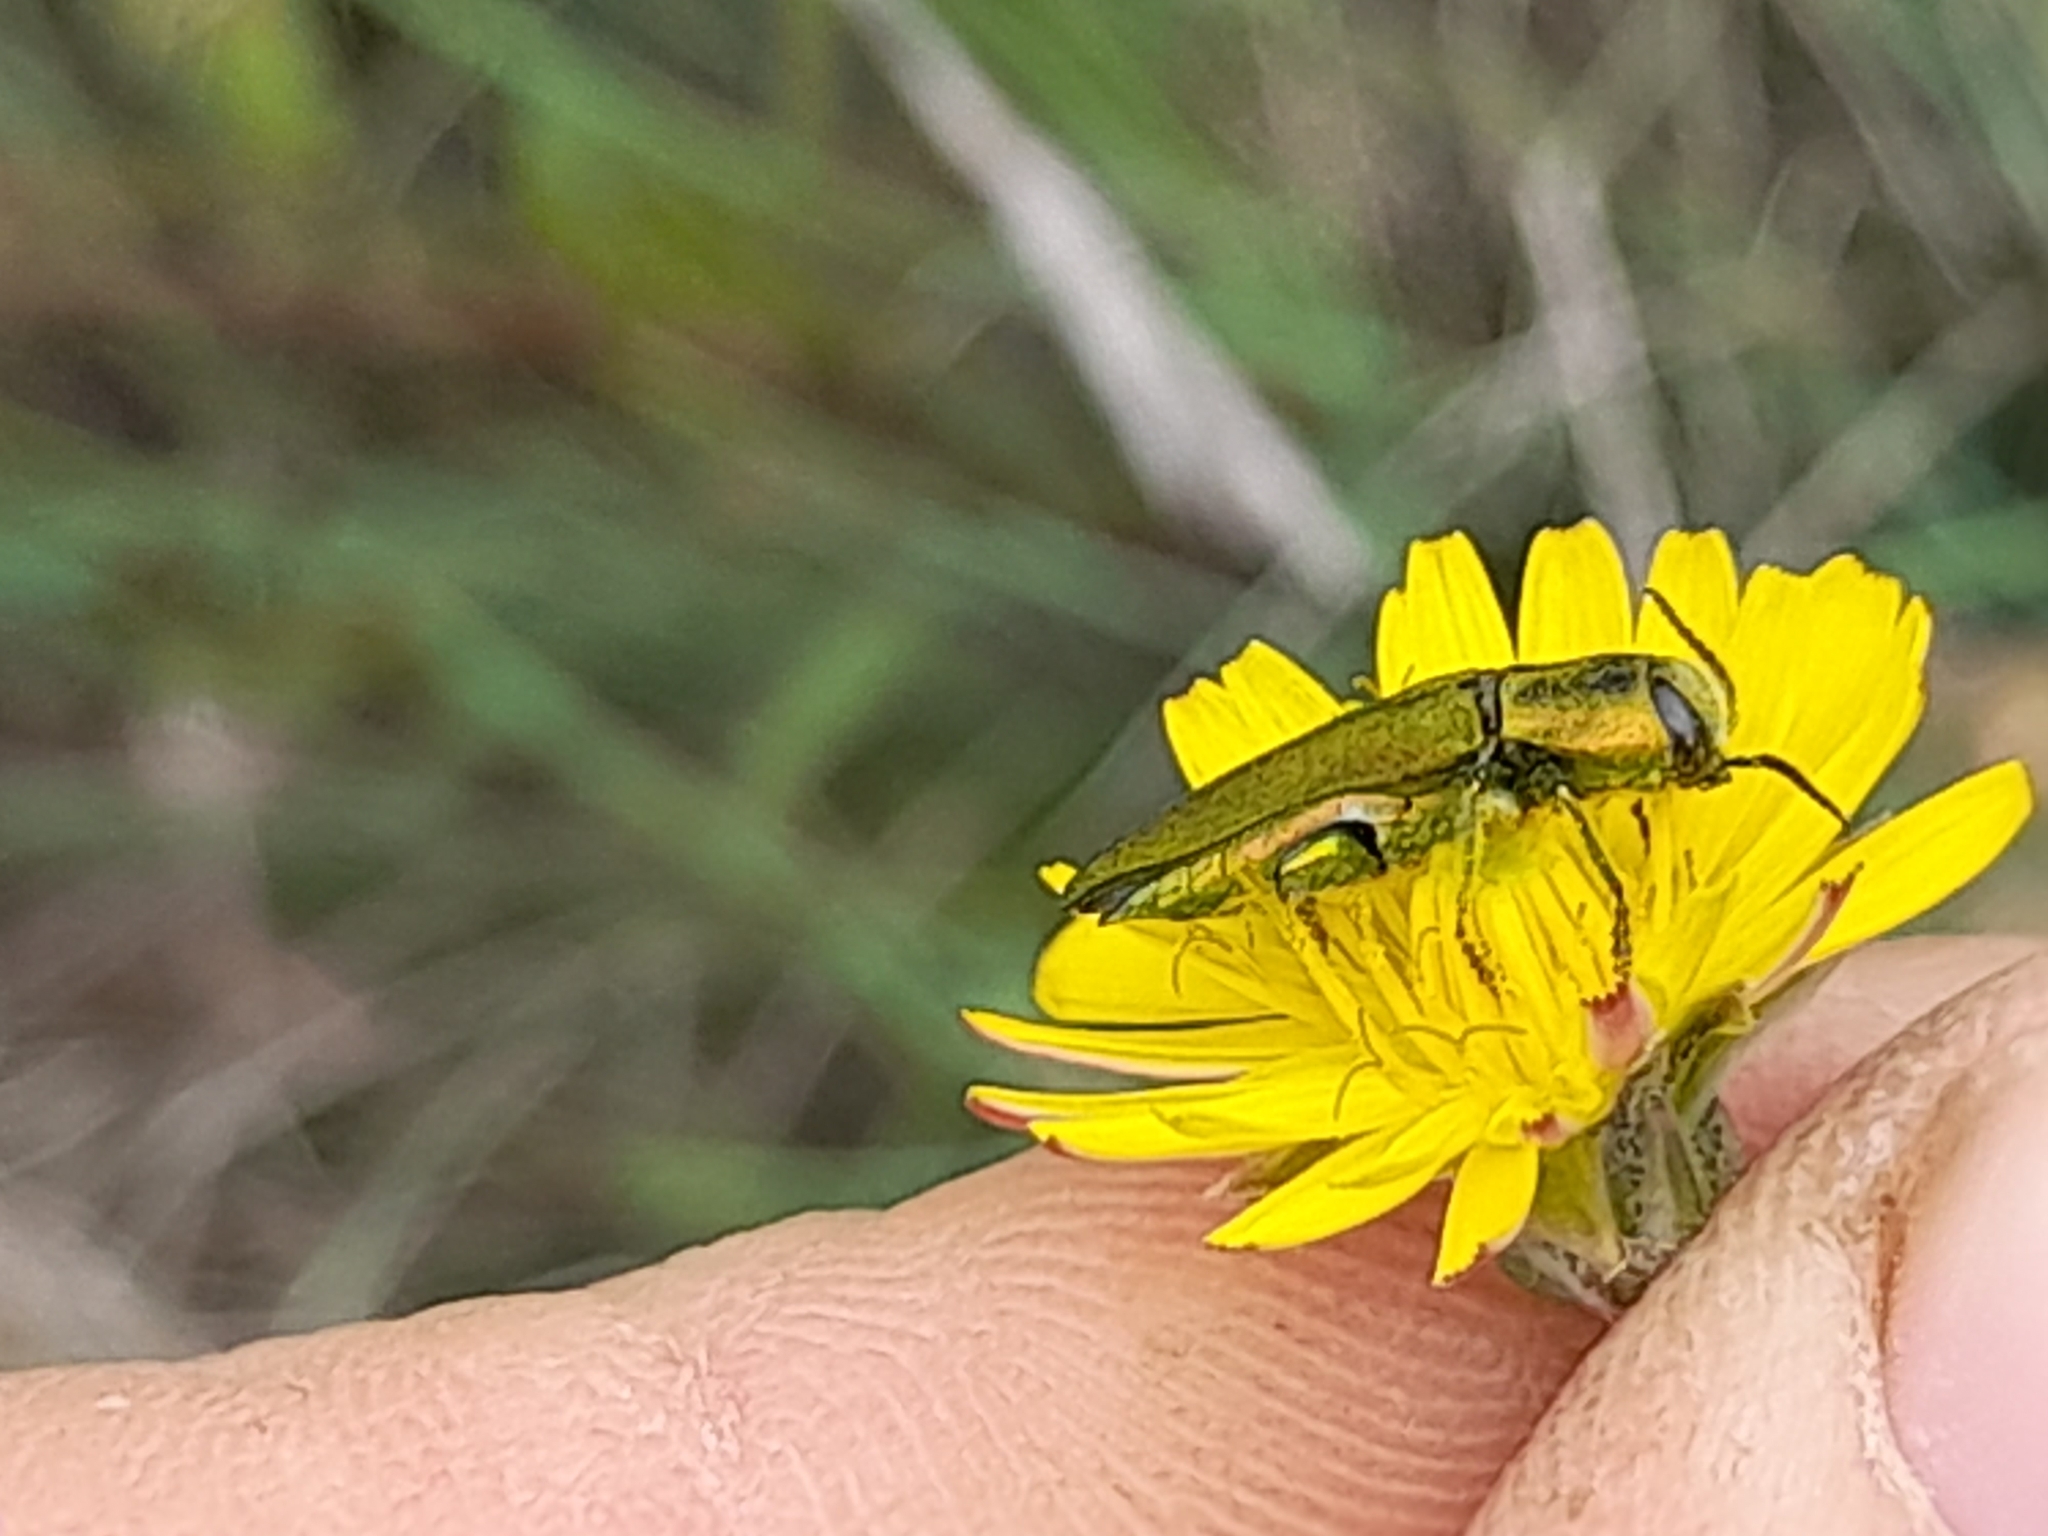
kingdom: Animalia
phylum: Arthropoda
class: Insecta
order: Coleoptera
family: Buprestidae
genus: Anthaxia
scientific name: Anthaxia hungarica
